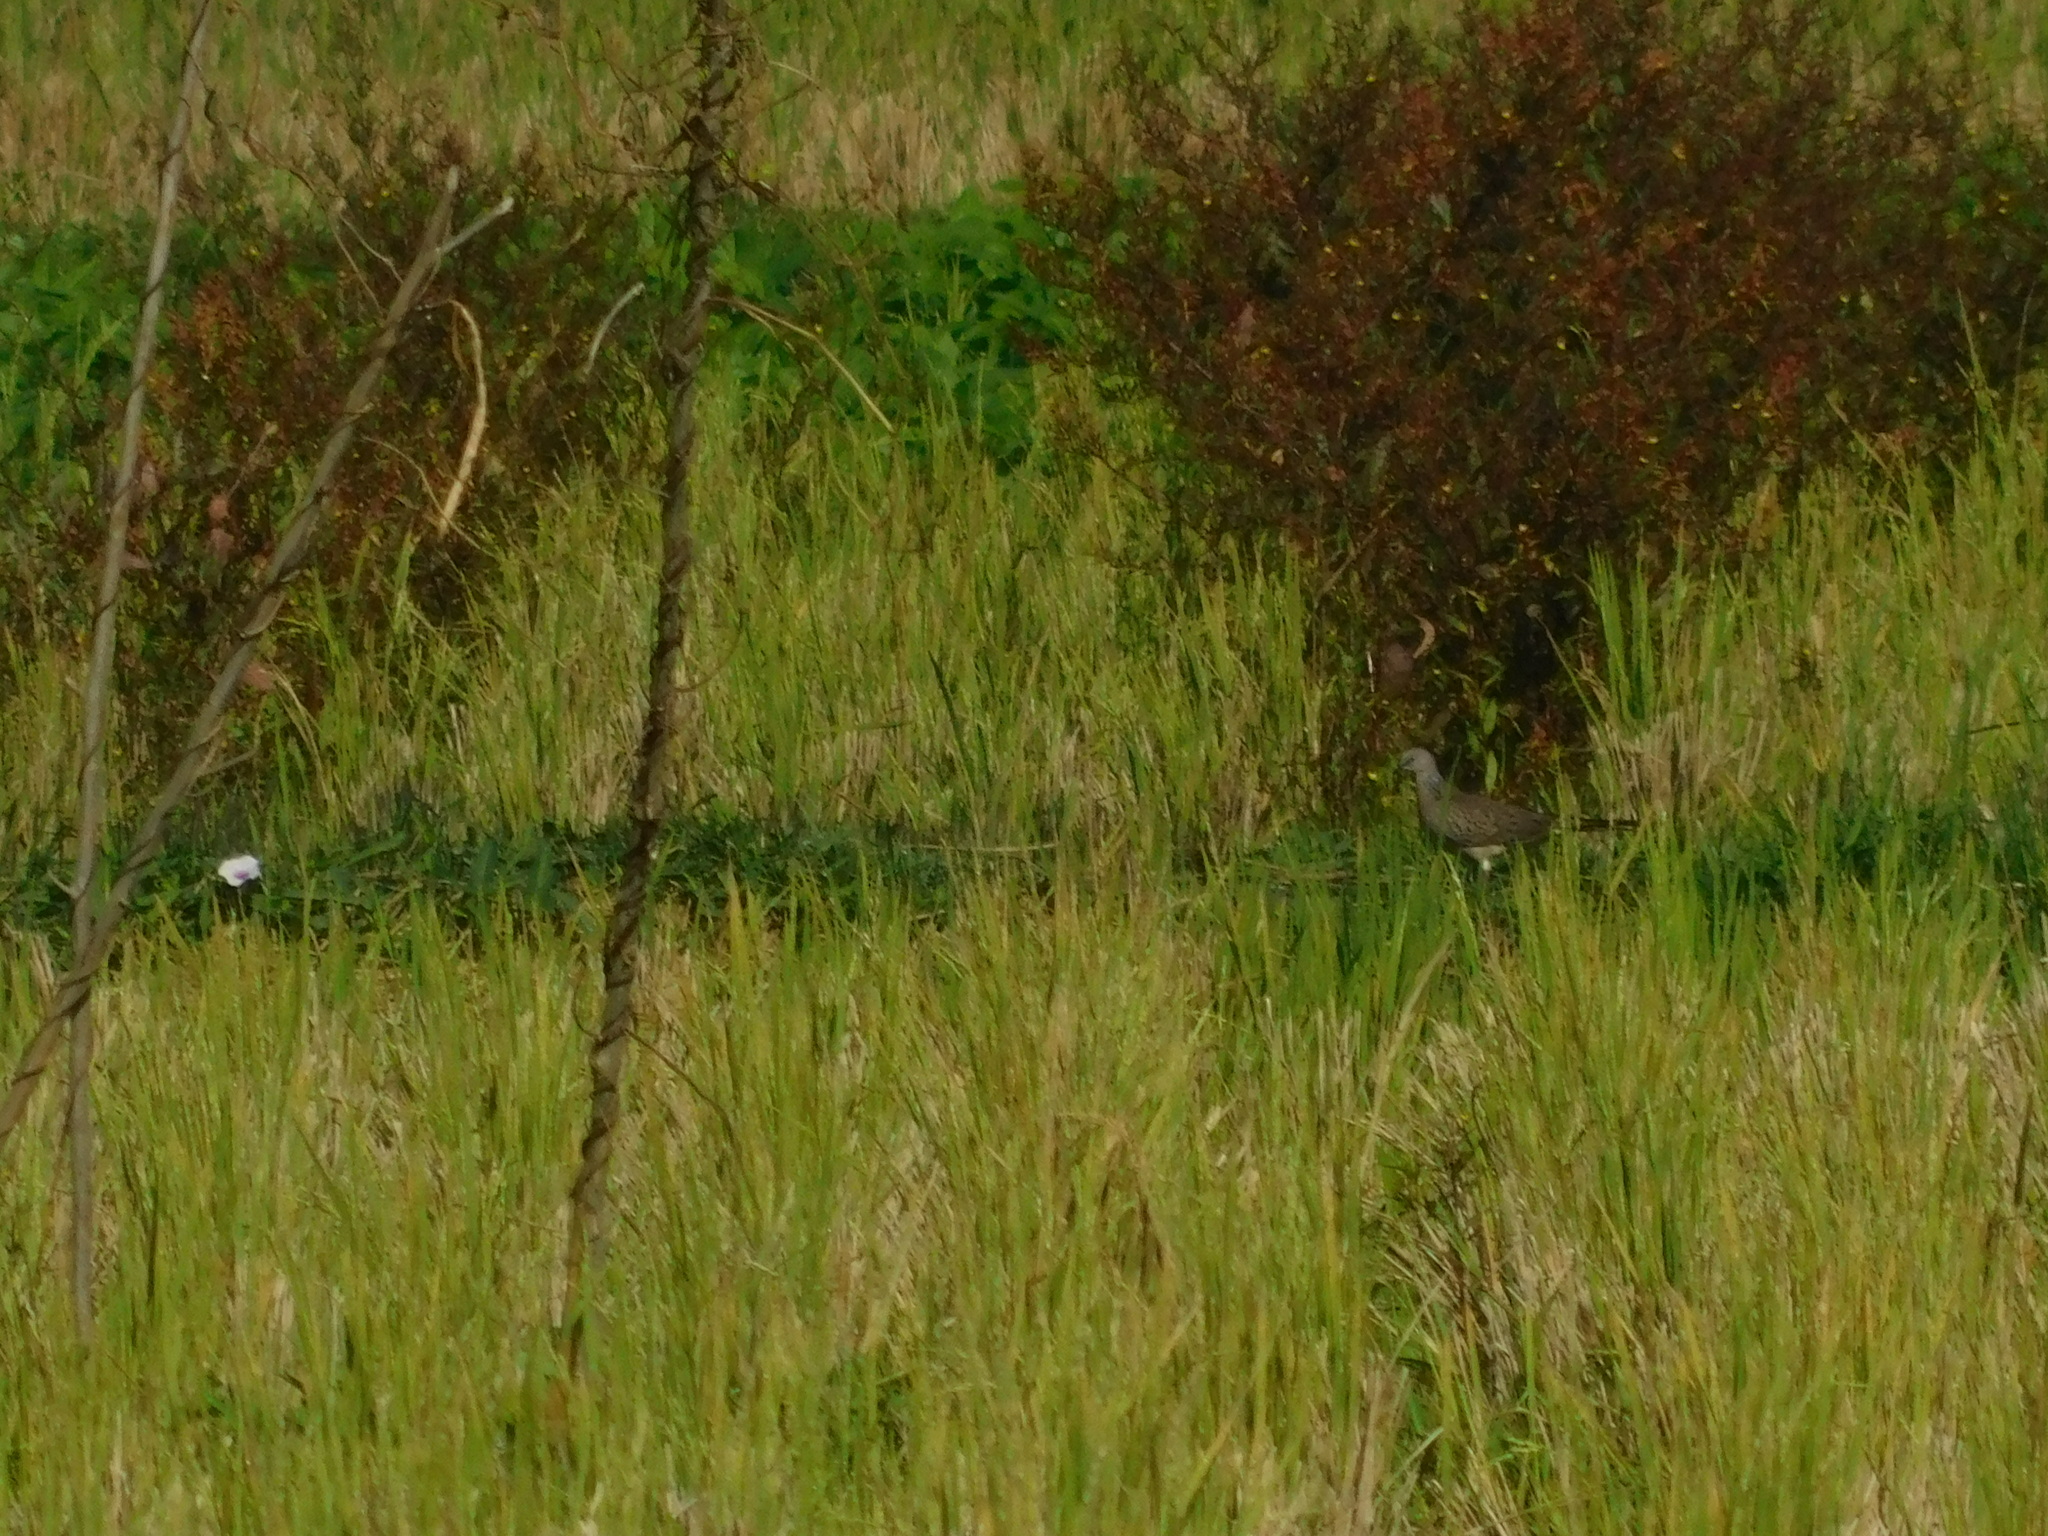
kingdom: Animalia
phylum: Chordata
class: Aves
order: Columbiformes
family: Columbidae
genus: Spilopelia
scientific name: Spilopelia chinensis
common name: Spotted dove
